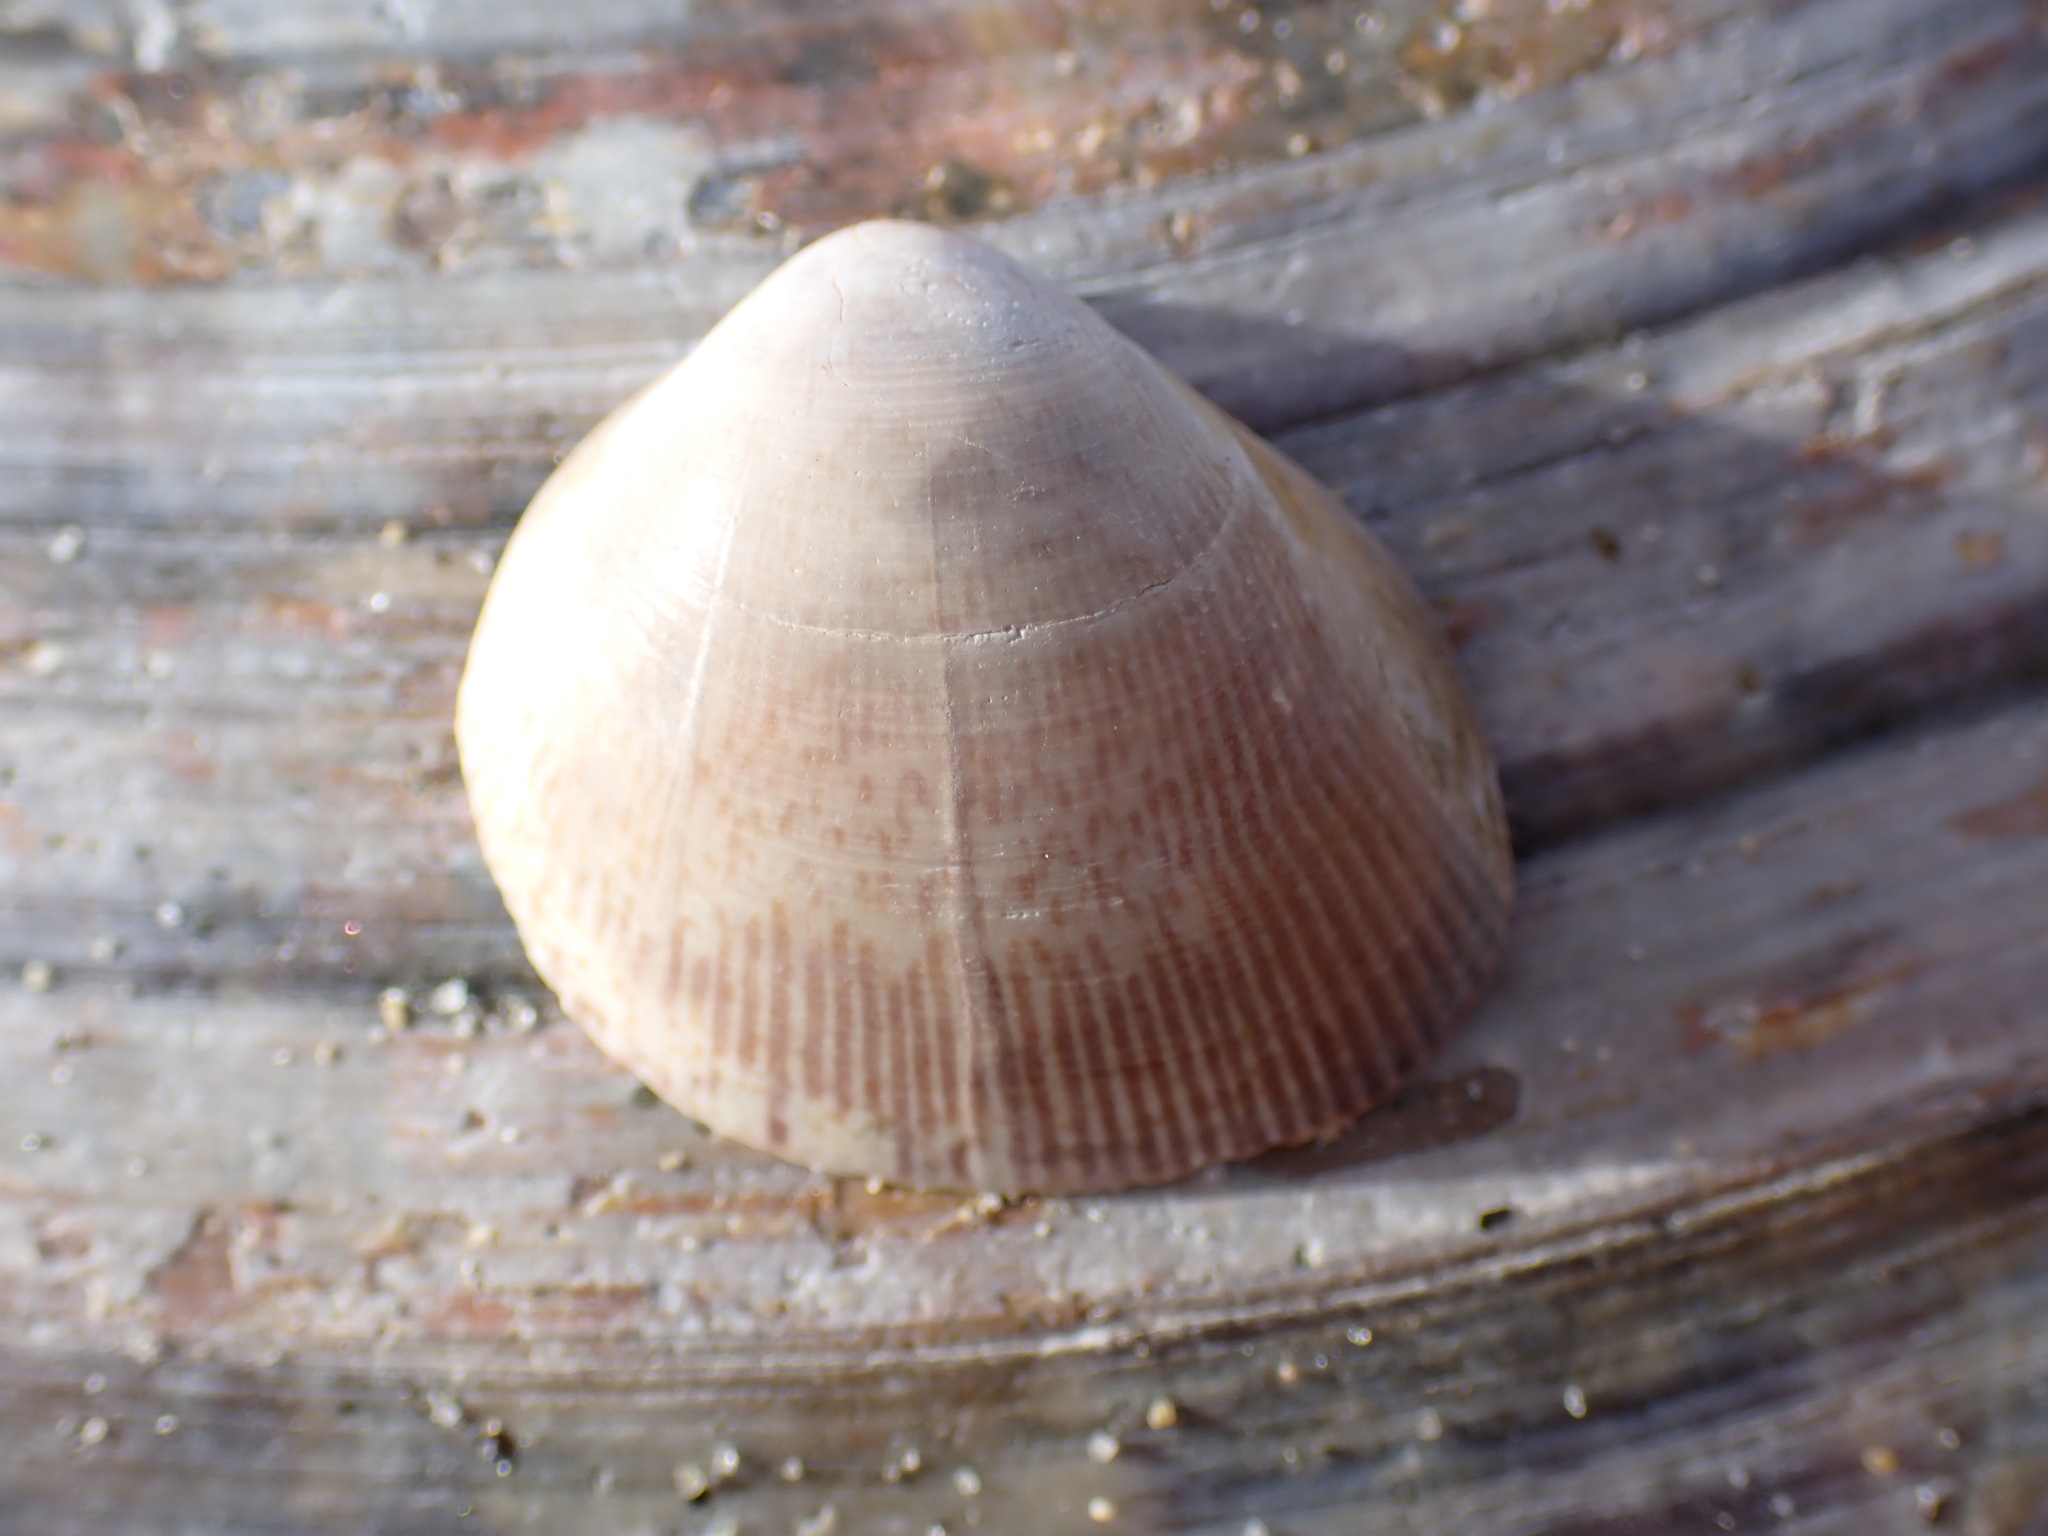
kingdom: Animalia
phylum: Mollusca
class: Bivalvia
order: Cardiida
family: Cardiidae
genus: Laevicardium
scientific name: Laevicardium substriatum
